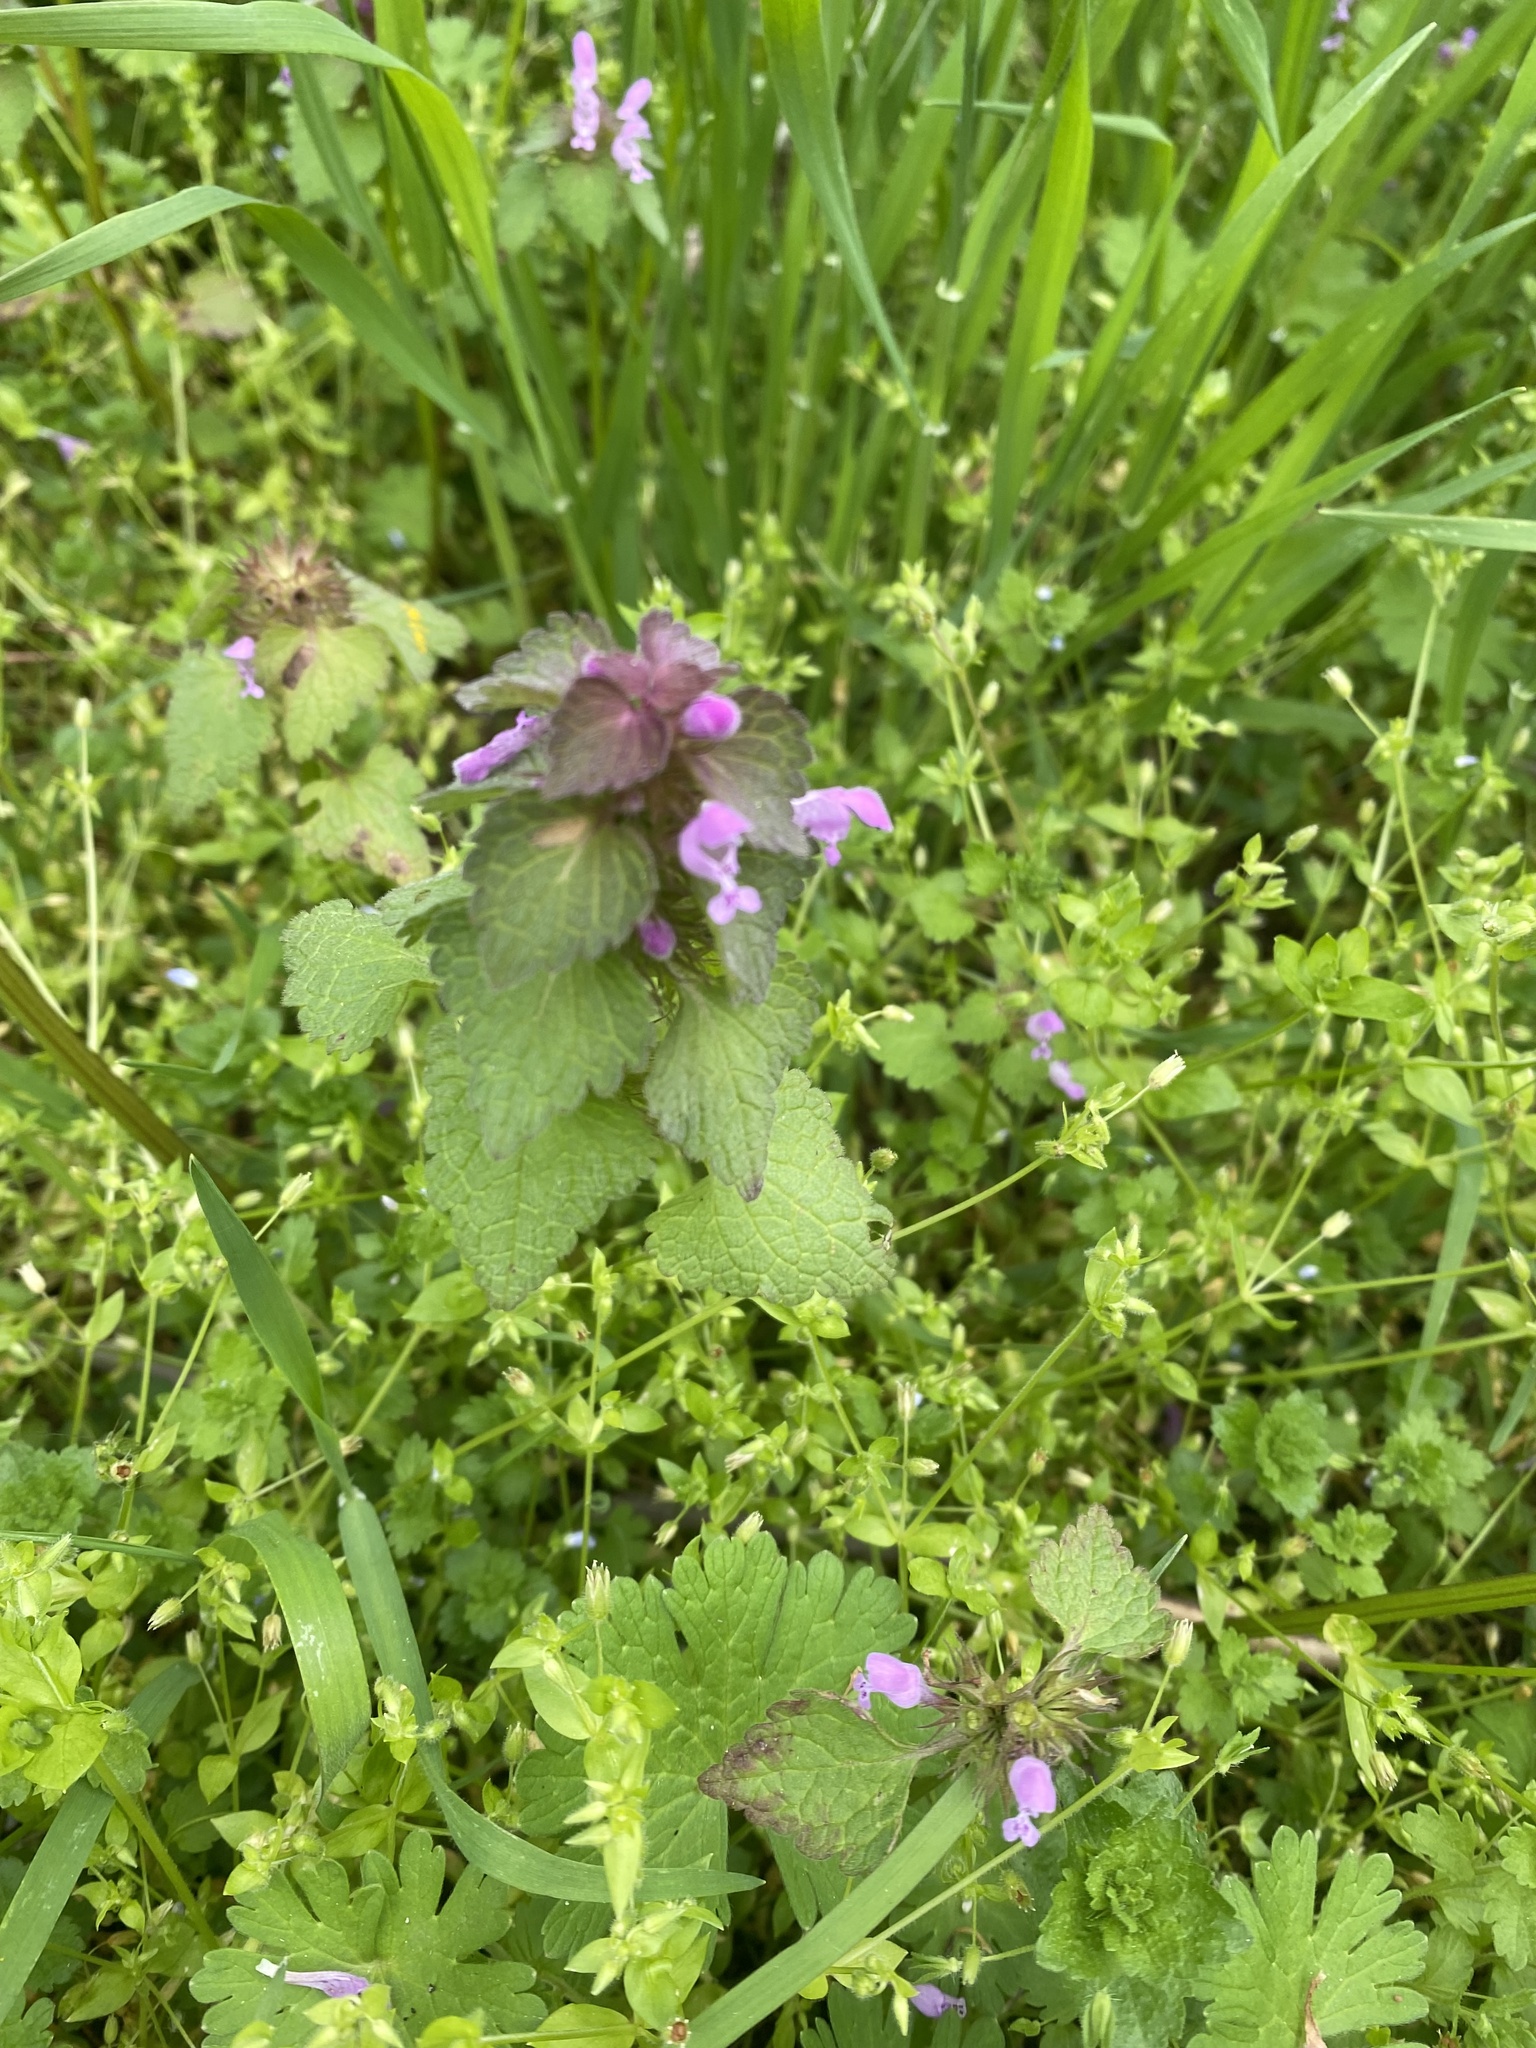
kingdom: Plantae
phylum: Tracheophyta
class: Magnoliopsida
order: Lamiales
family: Lamiaceae
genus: Lamium
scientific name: Lamium purpureum
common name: Red dead-nettle
